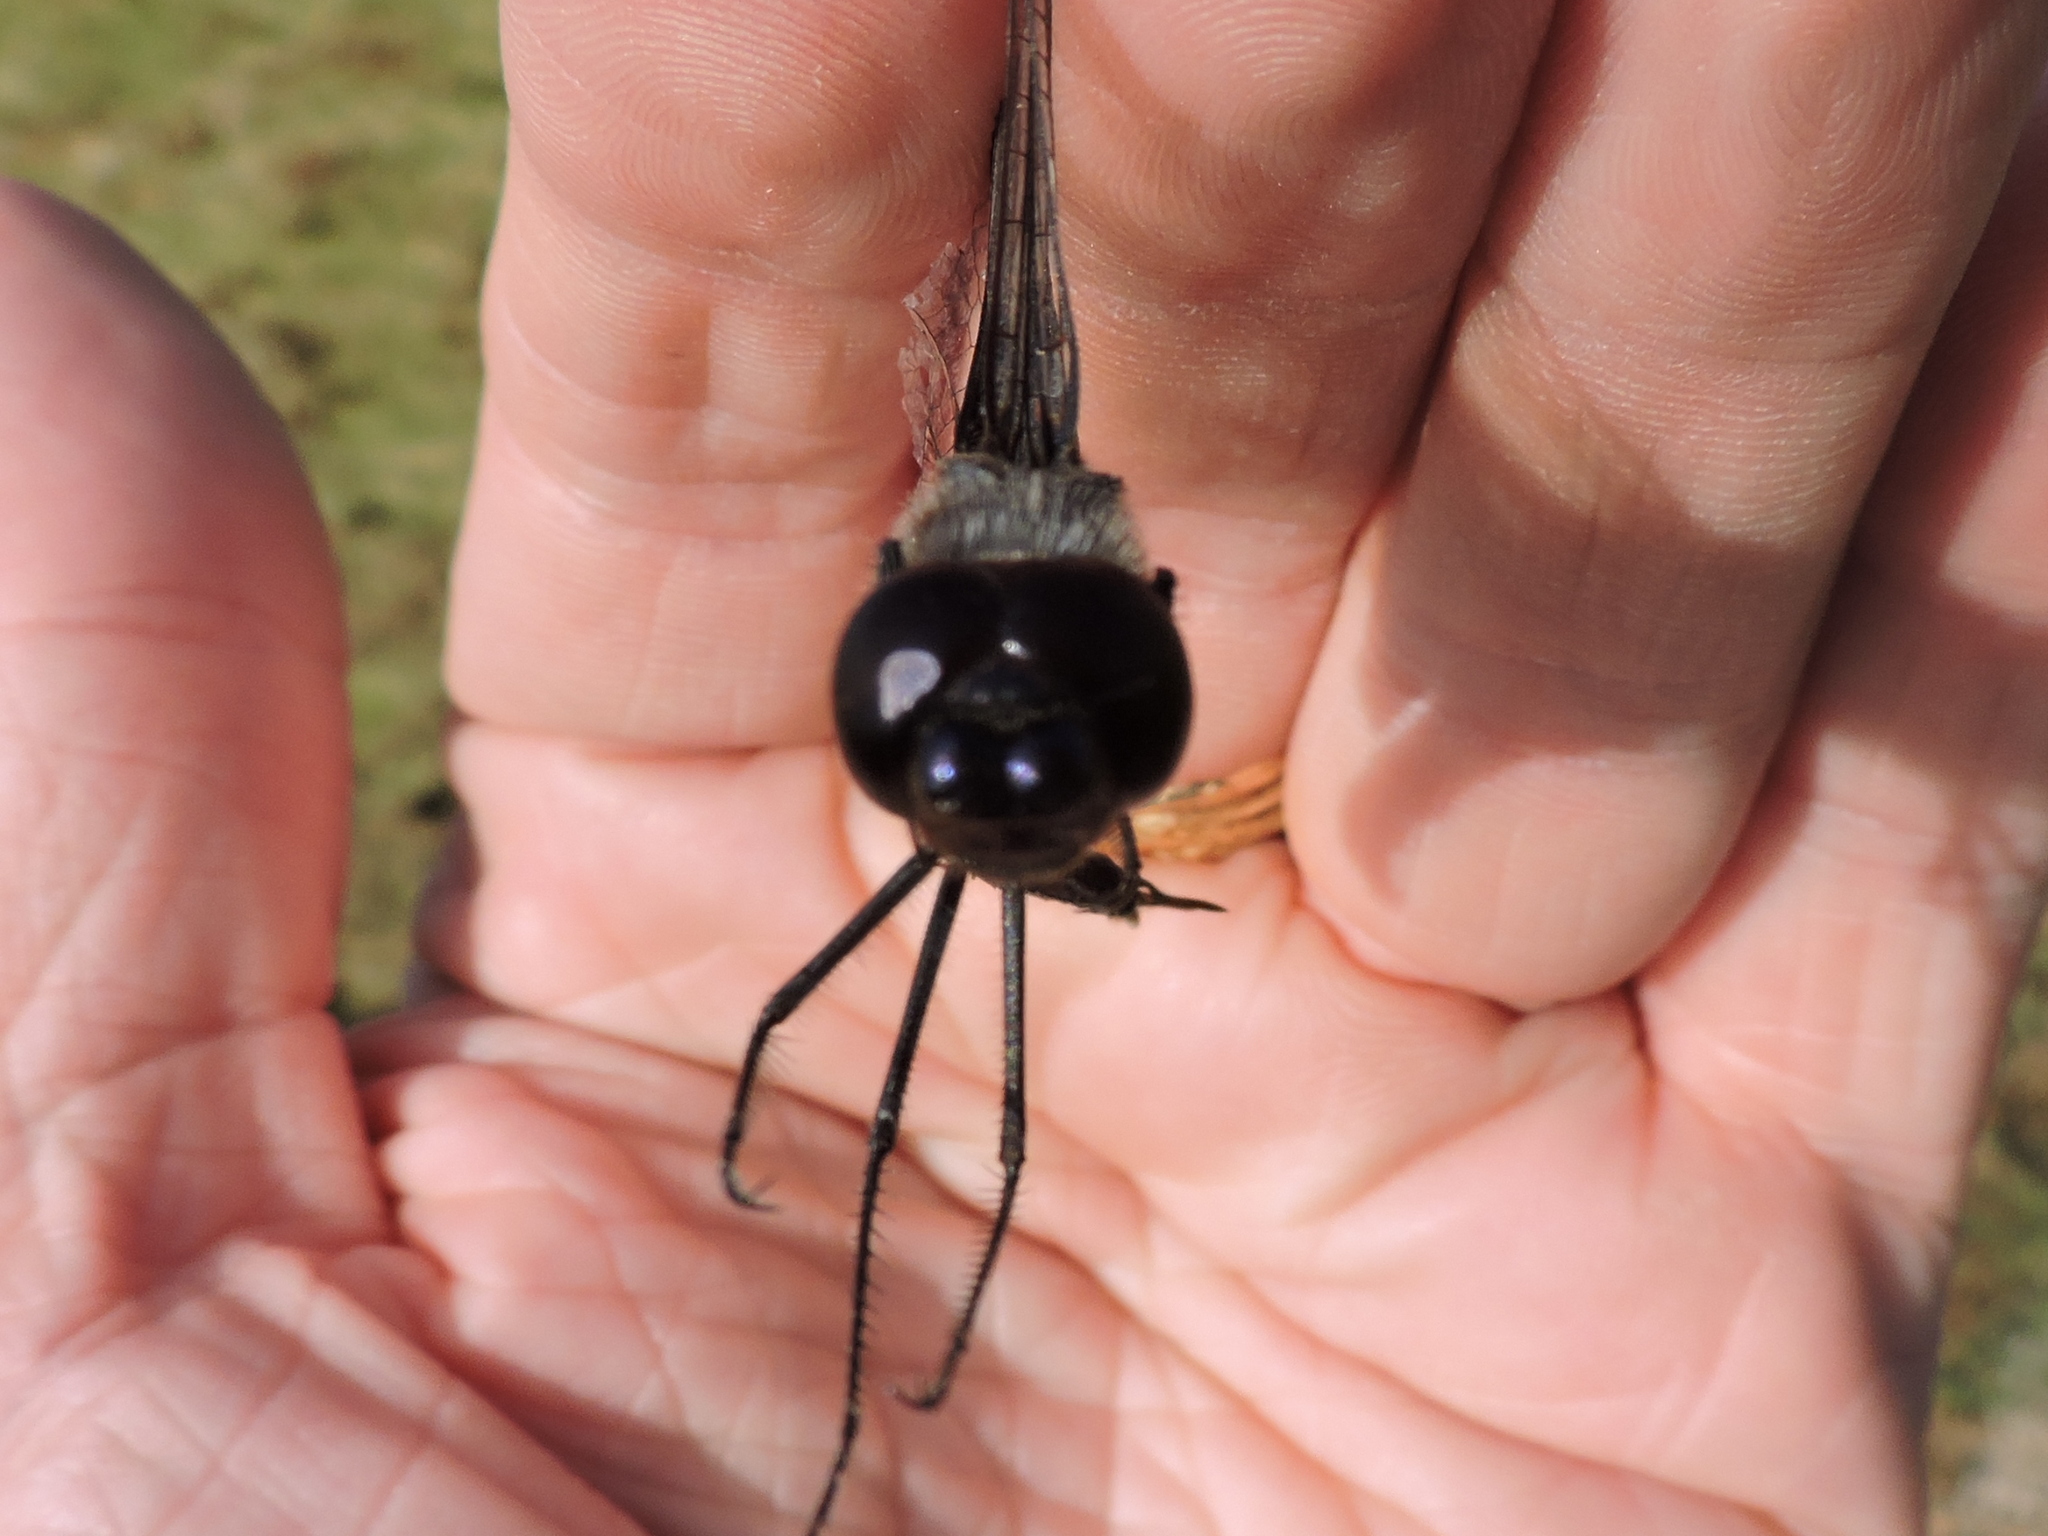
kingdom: Animalia
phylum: Arthropoda
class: Insecta
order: Odonata
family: Libellulidae
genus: Tramea
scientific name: Tramea lacerata
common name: Black saddlebags
